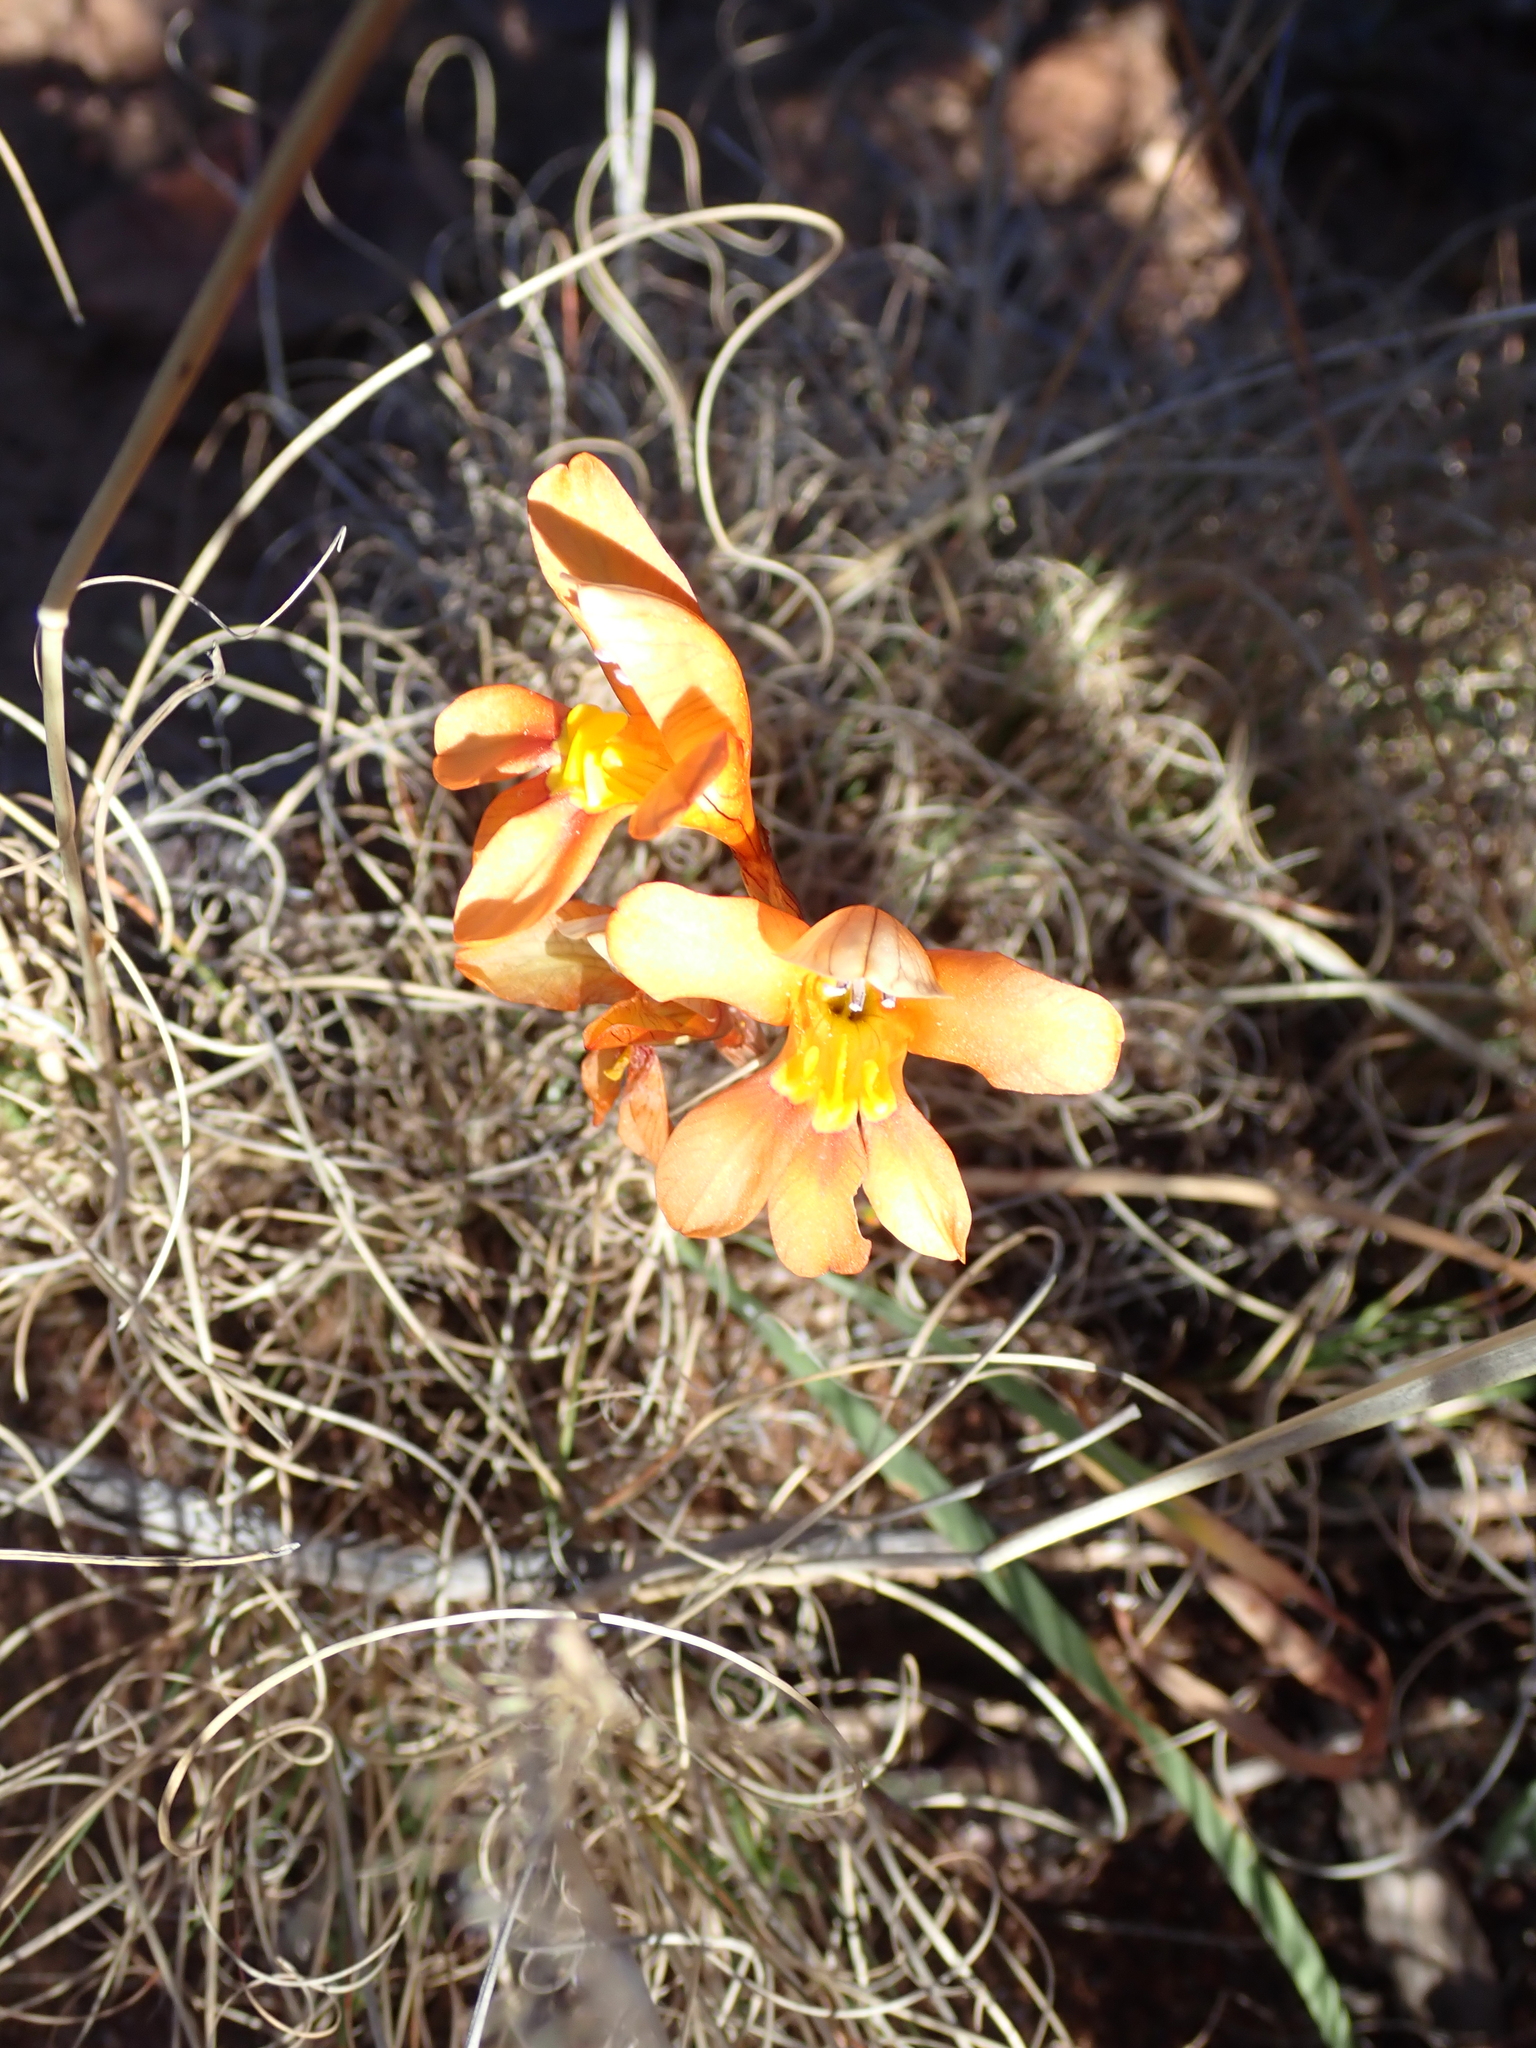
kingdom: Plantae
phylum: Tracheophyta
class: Liliopsida
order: Asparagales
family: Iridaceae
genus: Tritonia
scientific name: Tritonia parvula
